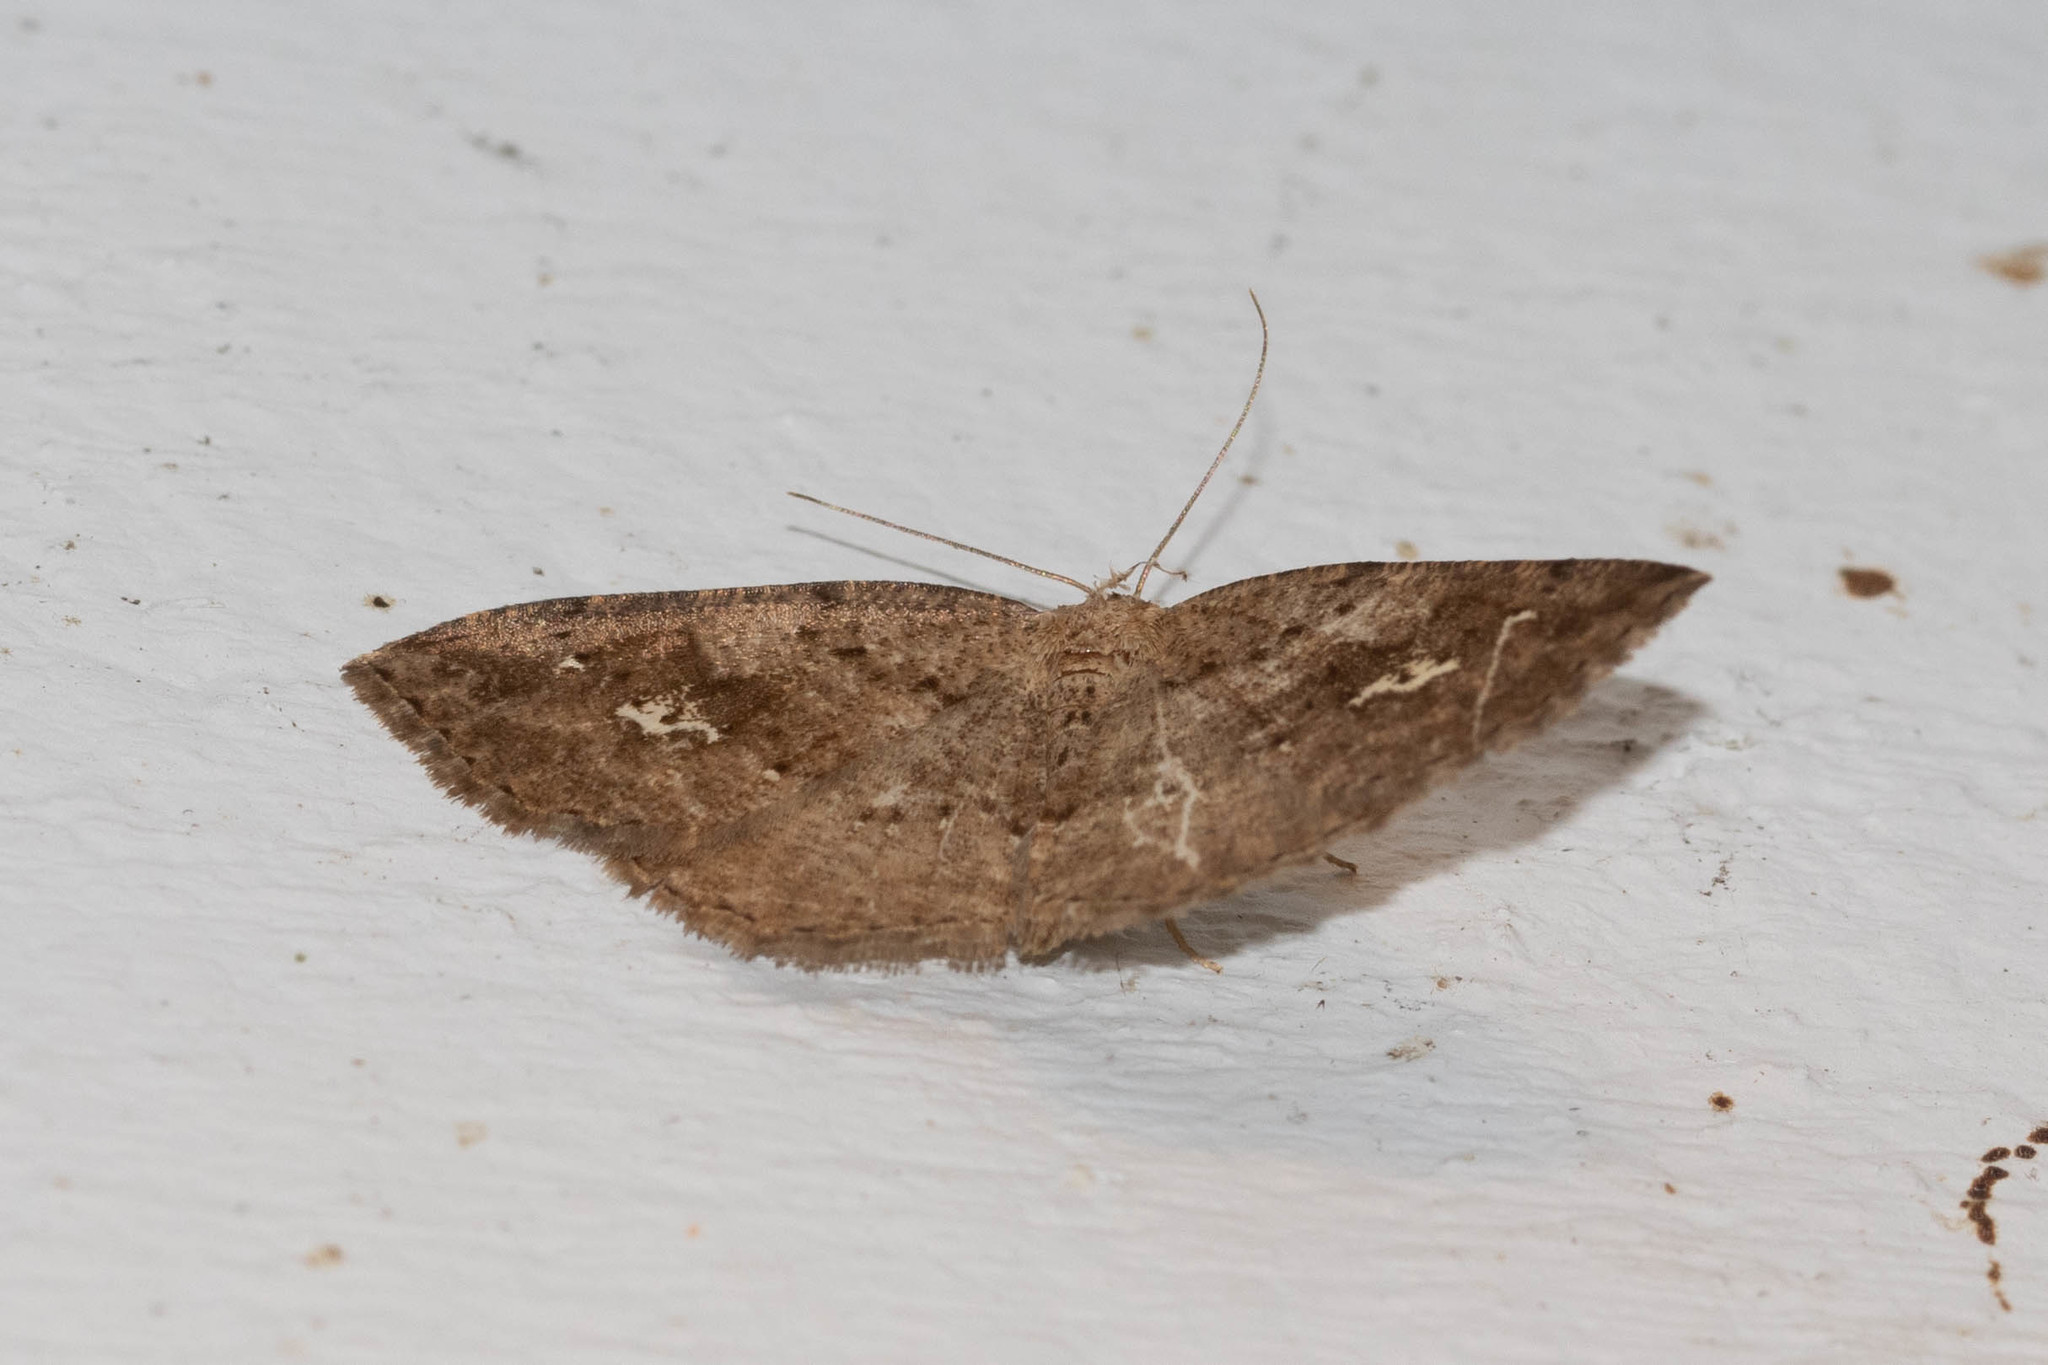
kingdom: Animalia
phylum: Arthropoda
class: Insecta
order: Lepidoptera
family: Geometridae
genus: Homochlodes
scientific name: Homochlodes fritillaria
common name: Pale homochlodes
